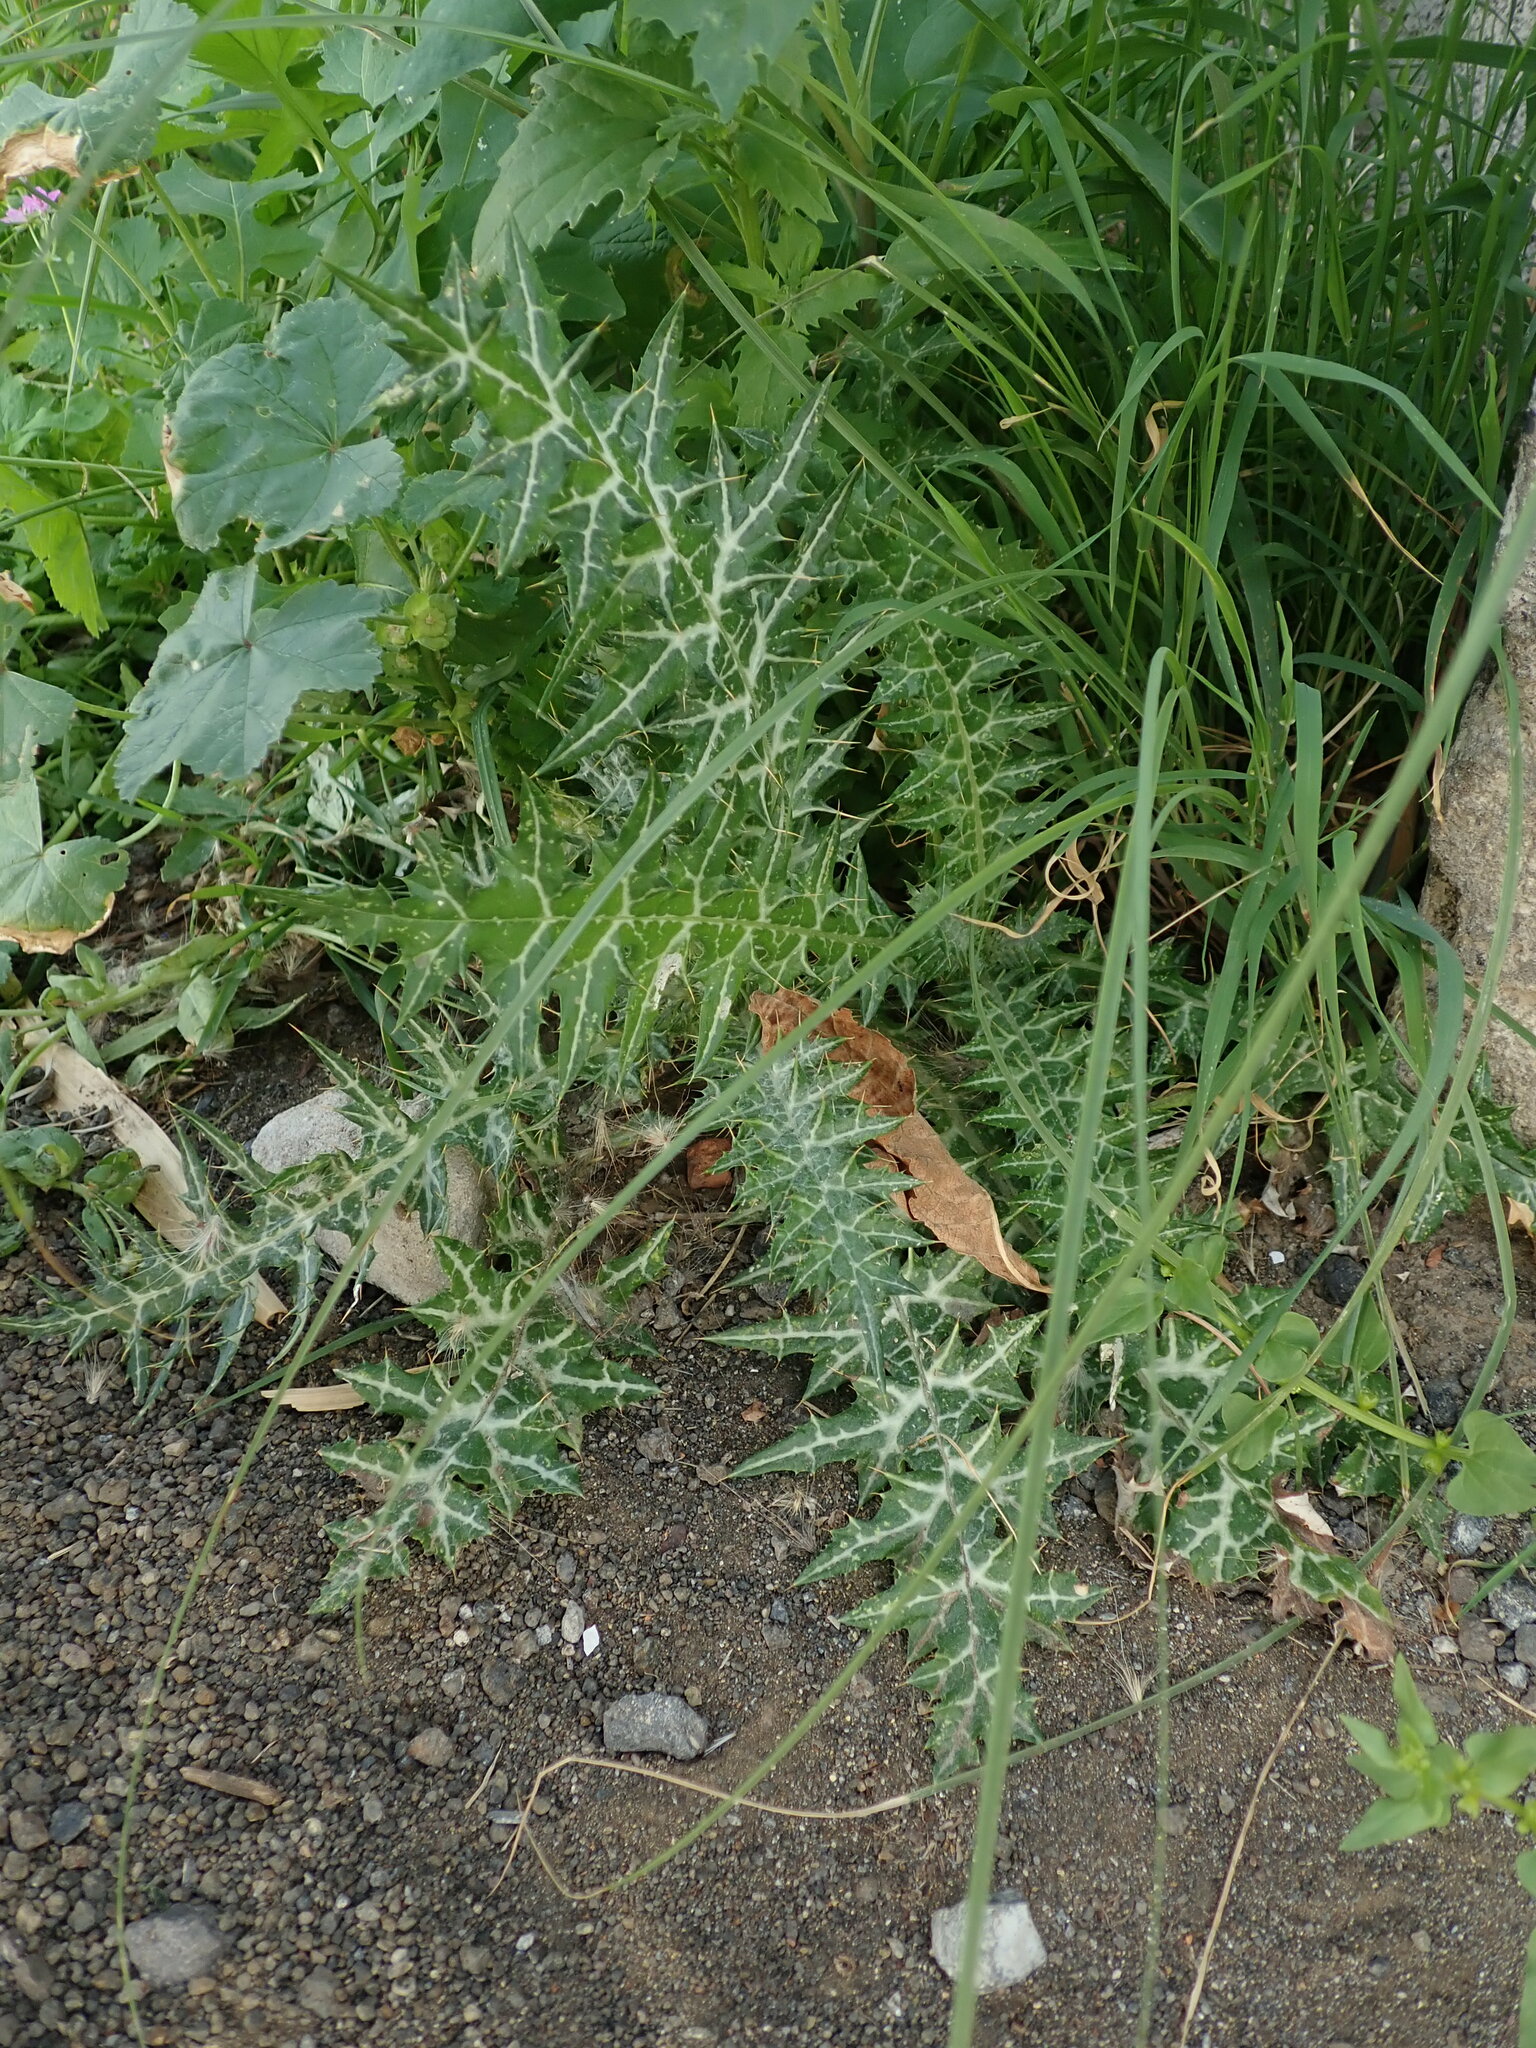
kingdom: Plantae
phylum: Tracheophyta
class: Magnoliopsida
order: Asterales
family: Asteraceae
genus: Galactites
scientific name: Galactites tomentosa
